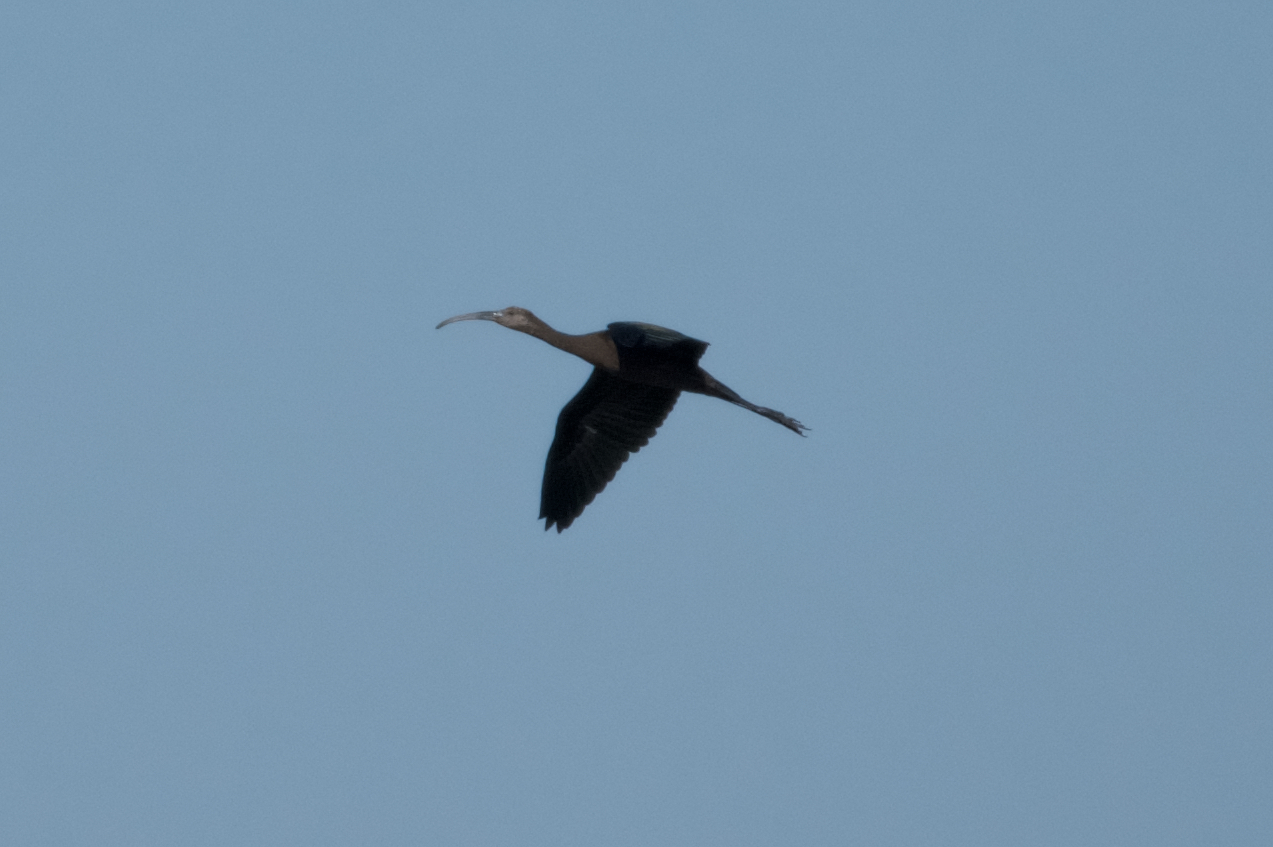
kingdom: Animalia
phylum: Chordata
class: Aves
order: Pelecaniformes
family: Threskiornithidae
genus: Plegadis
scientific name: Plegadis chihi
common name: White-faced ibis
